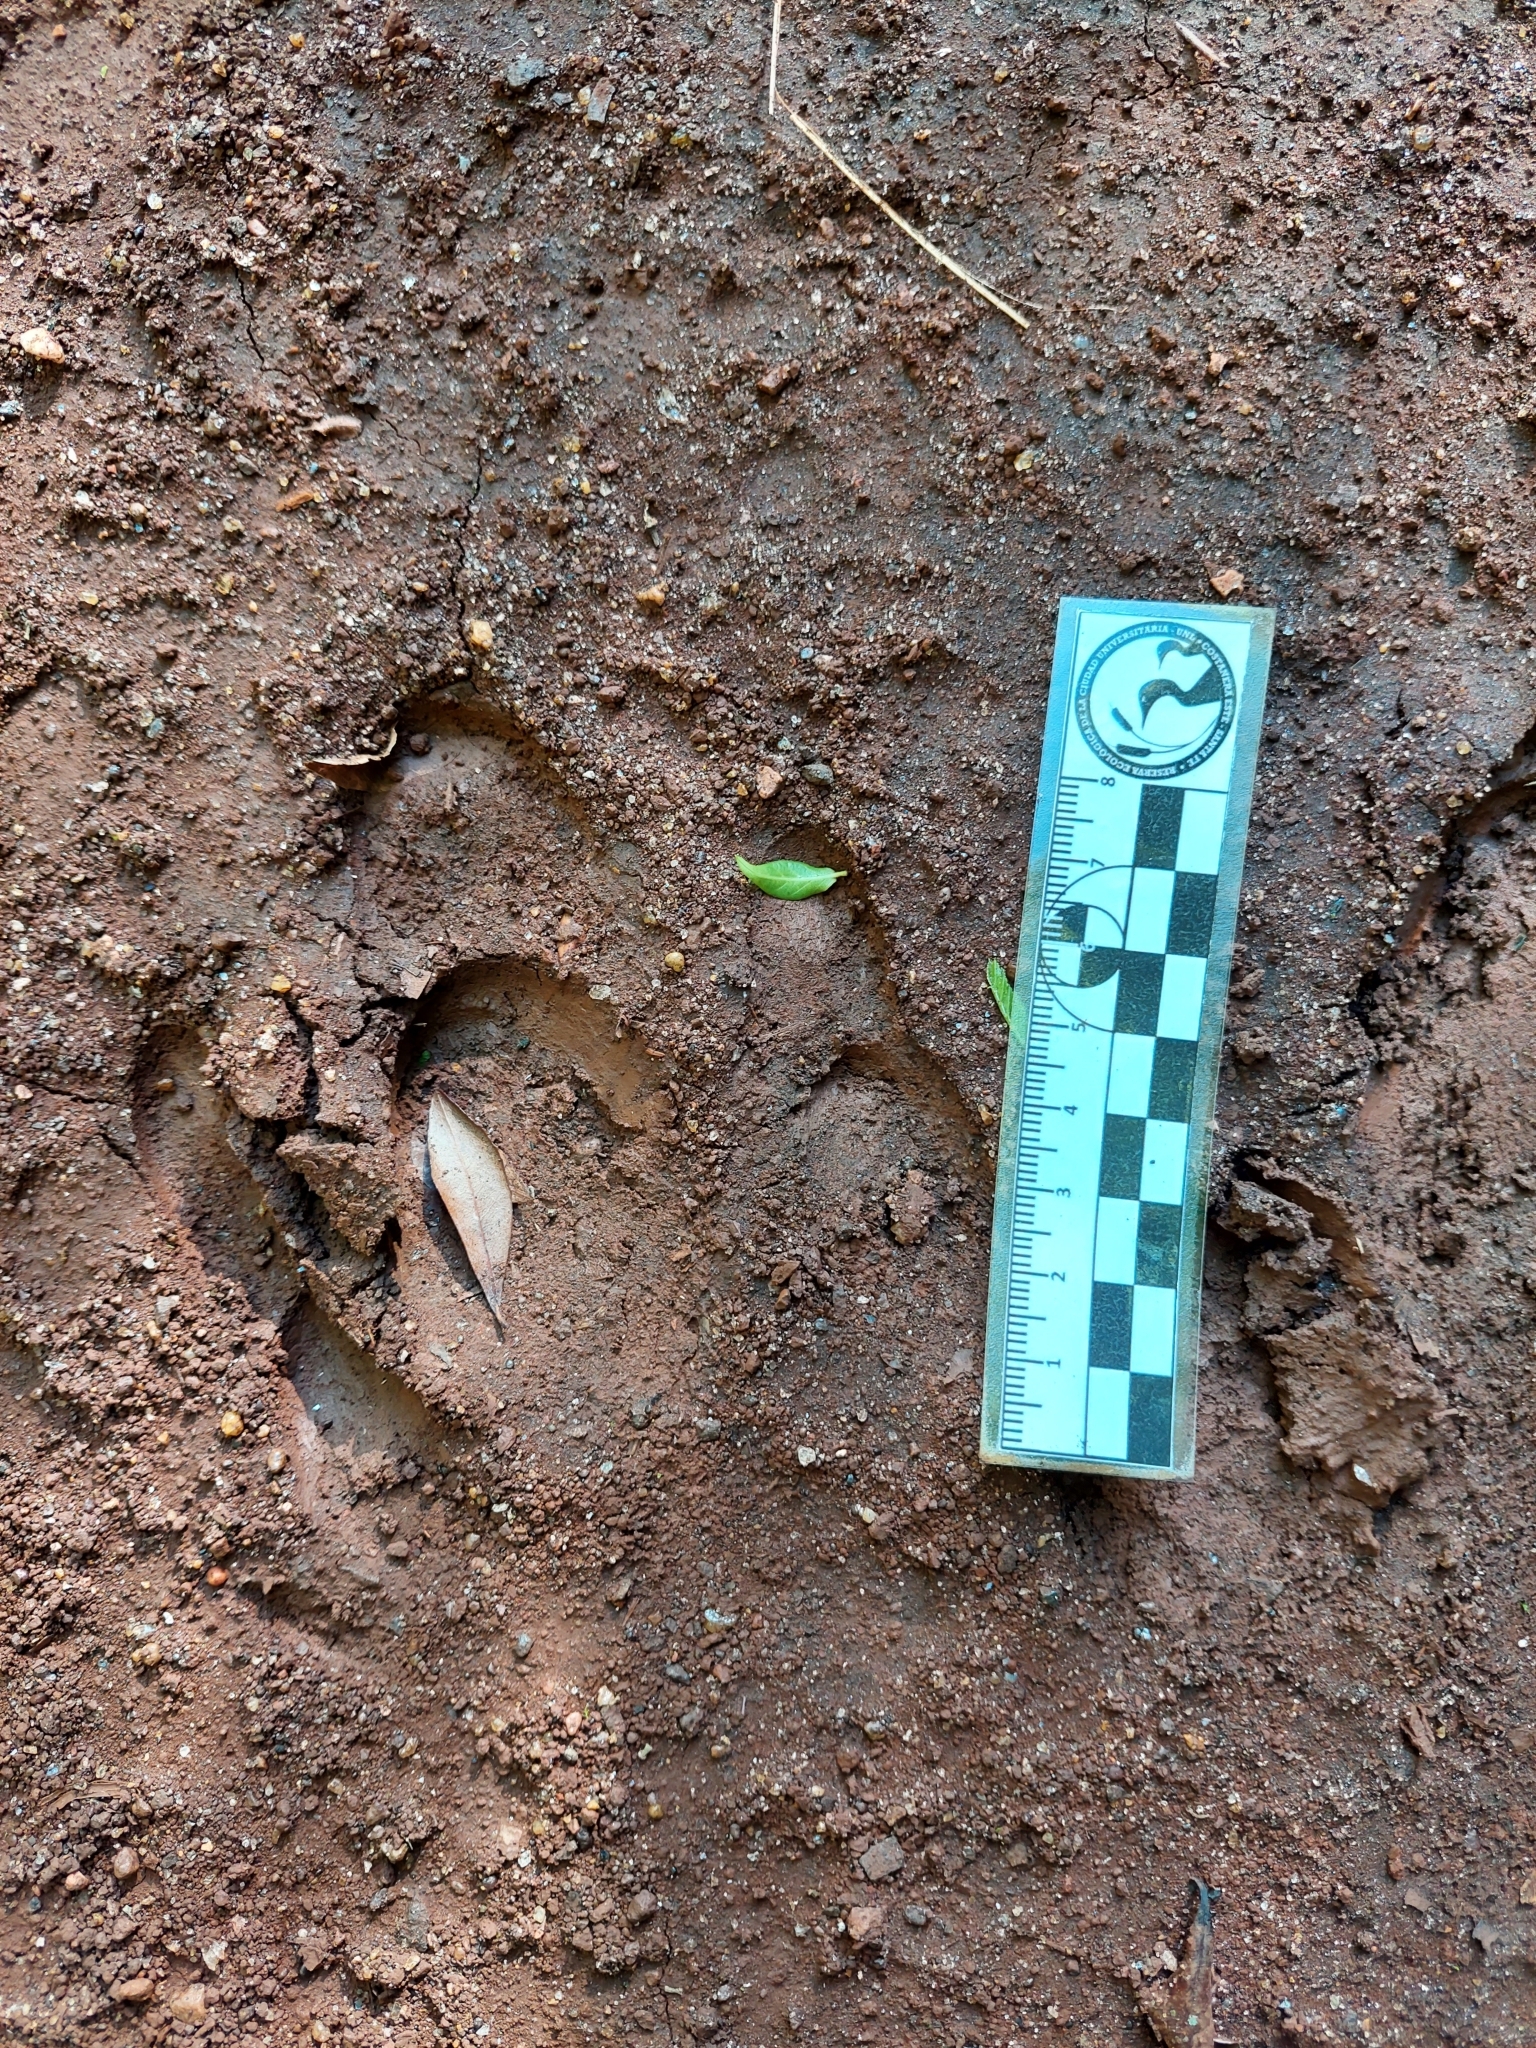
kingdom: Animalia
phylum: Chordata
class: Mammalia
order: Perissodactyla
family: Tapiridae
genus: Tapirus
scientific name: Tapirus terrestris
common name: Brazilian tapir
